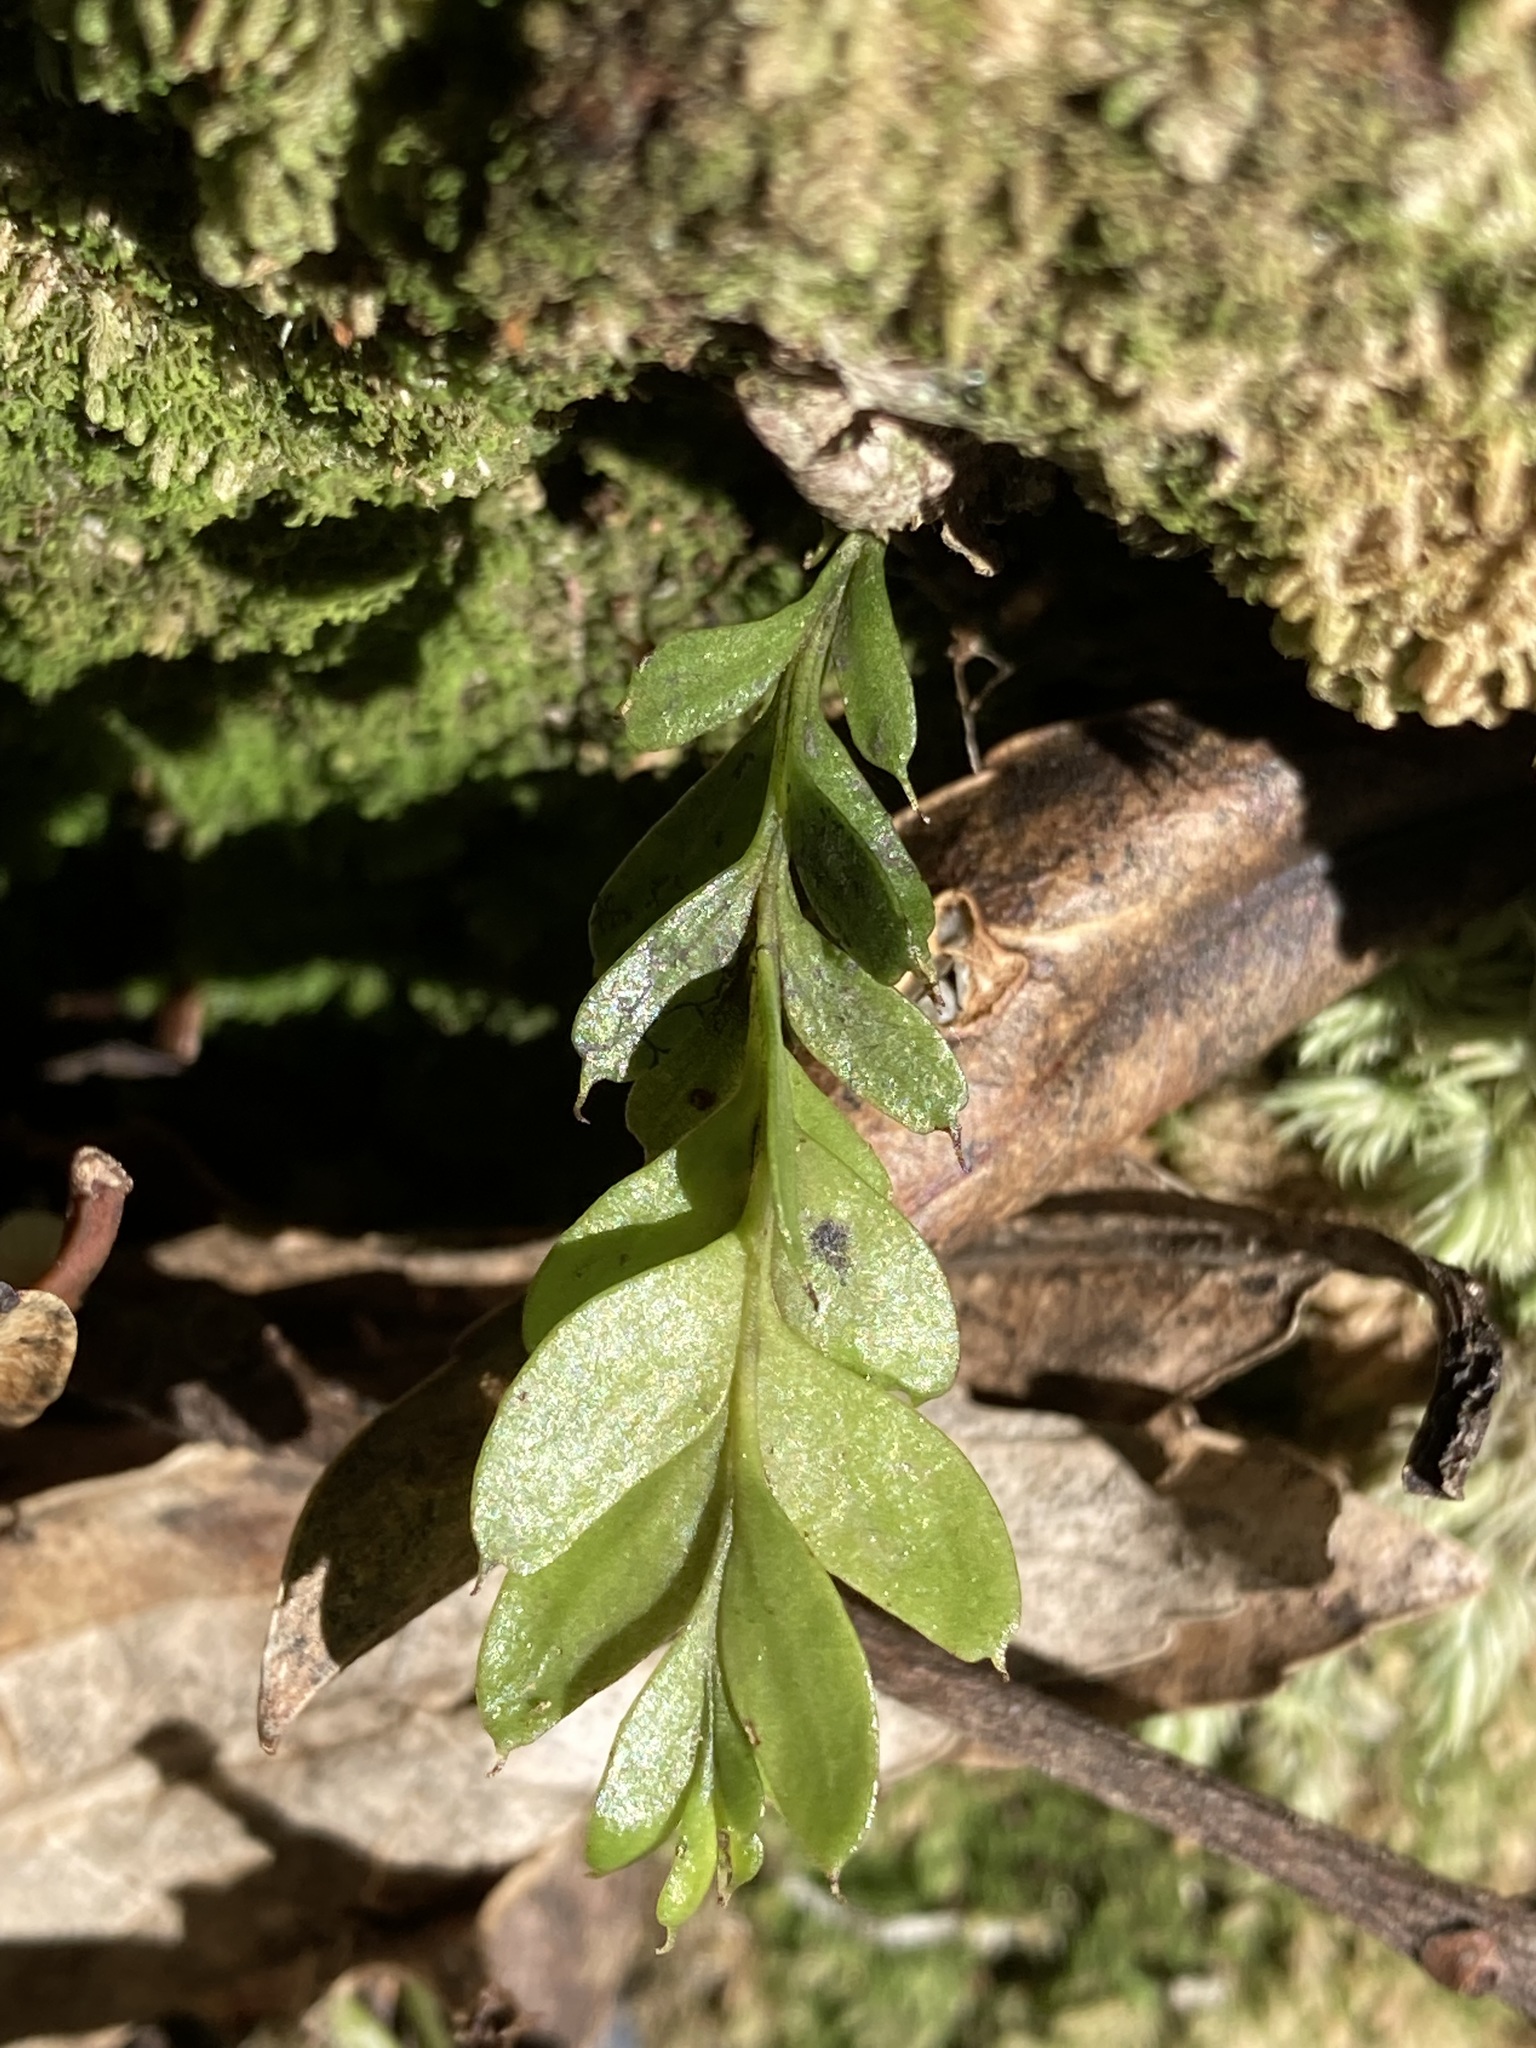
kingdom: Plantae
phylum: Tracheophyta
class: Polypodiopsida
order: Psilotales
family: Psilotaceae
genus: Tmesipteris
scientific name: Tmesipteris lanceolata
